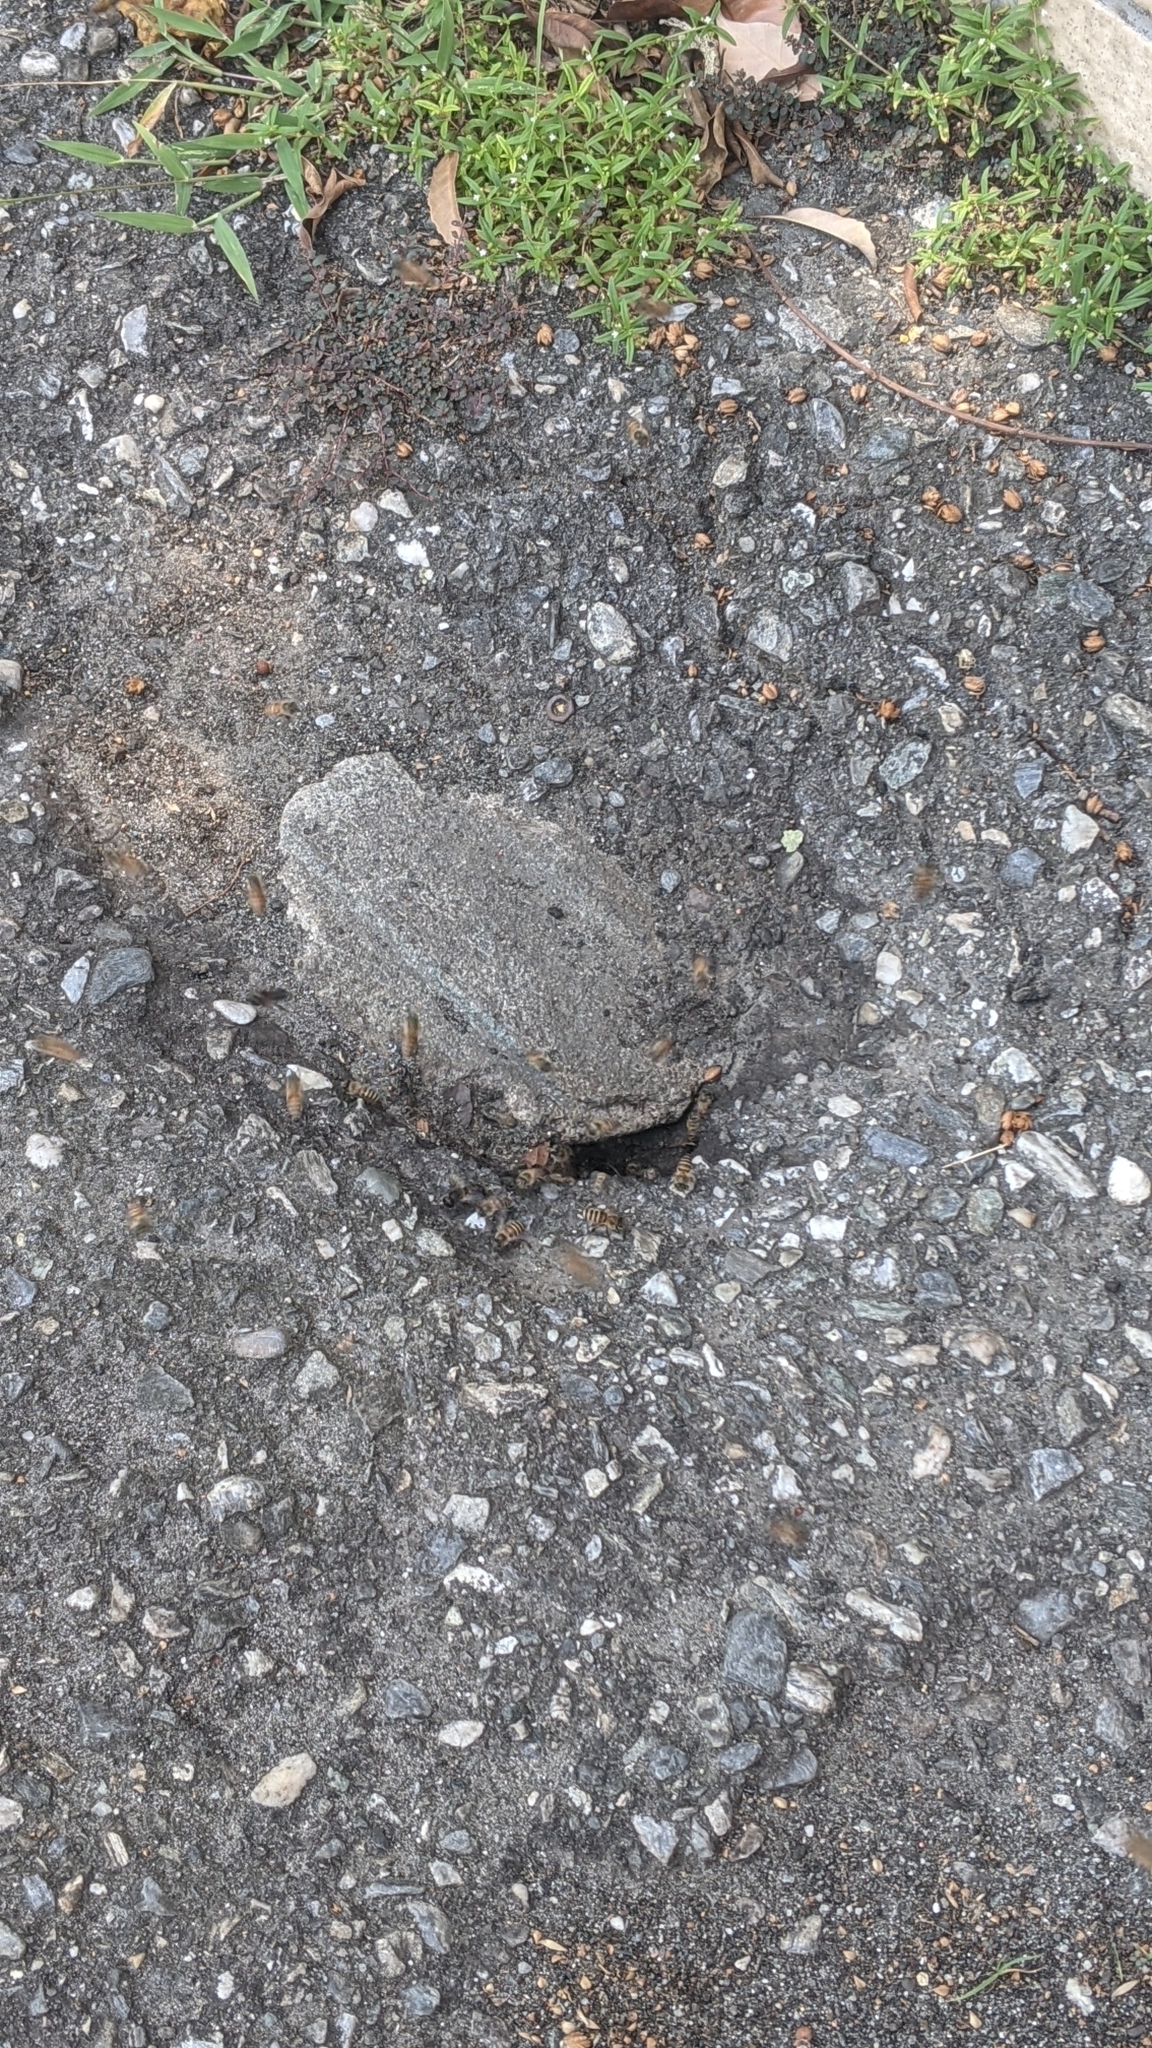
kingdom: Animalia
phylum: Arthropoda
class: Insecta
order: Hymenoptera
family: Apidae
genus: Apis
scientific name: Apis cerana
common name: Honey bee
